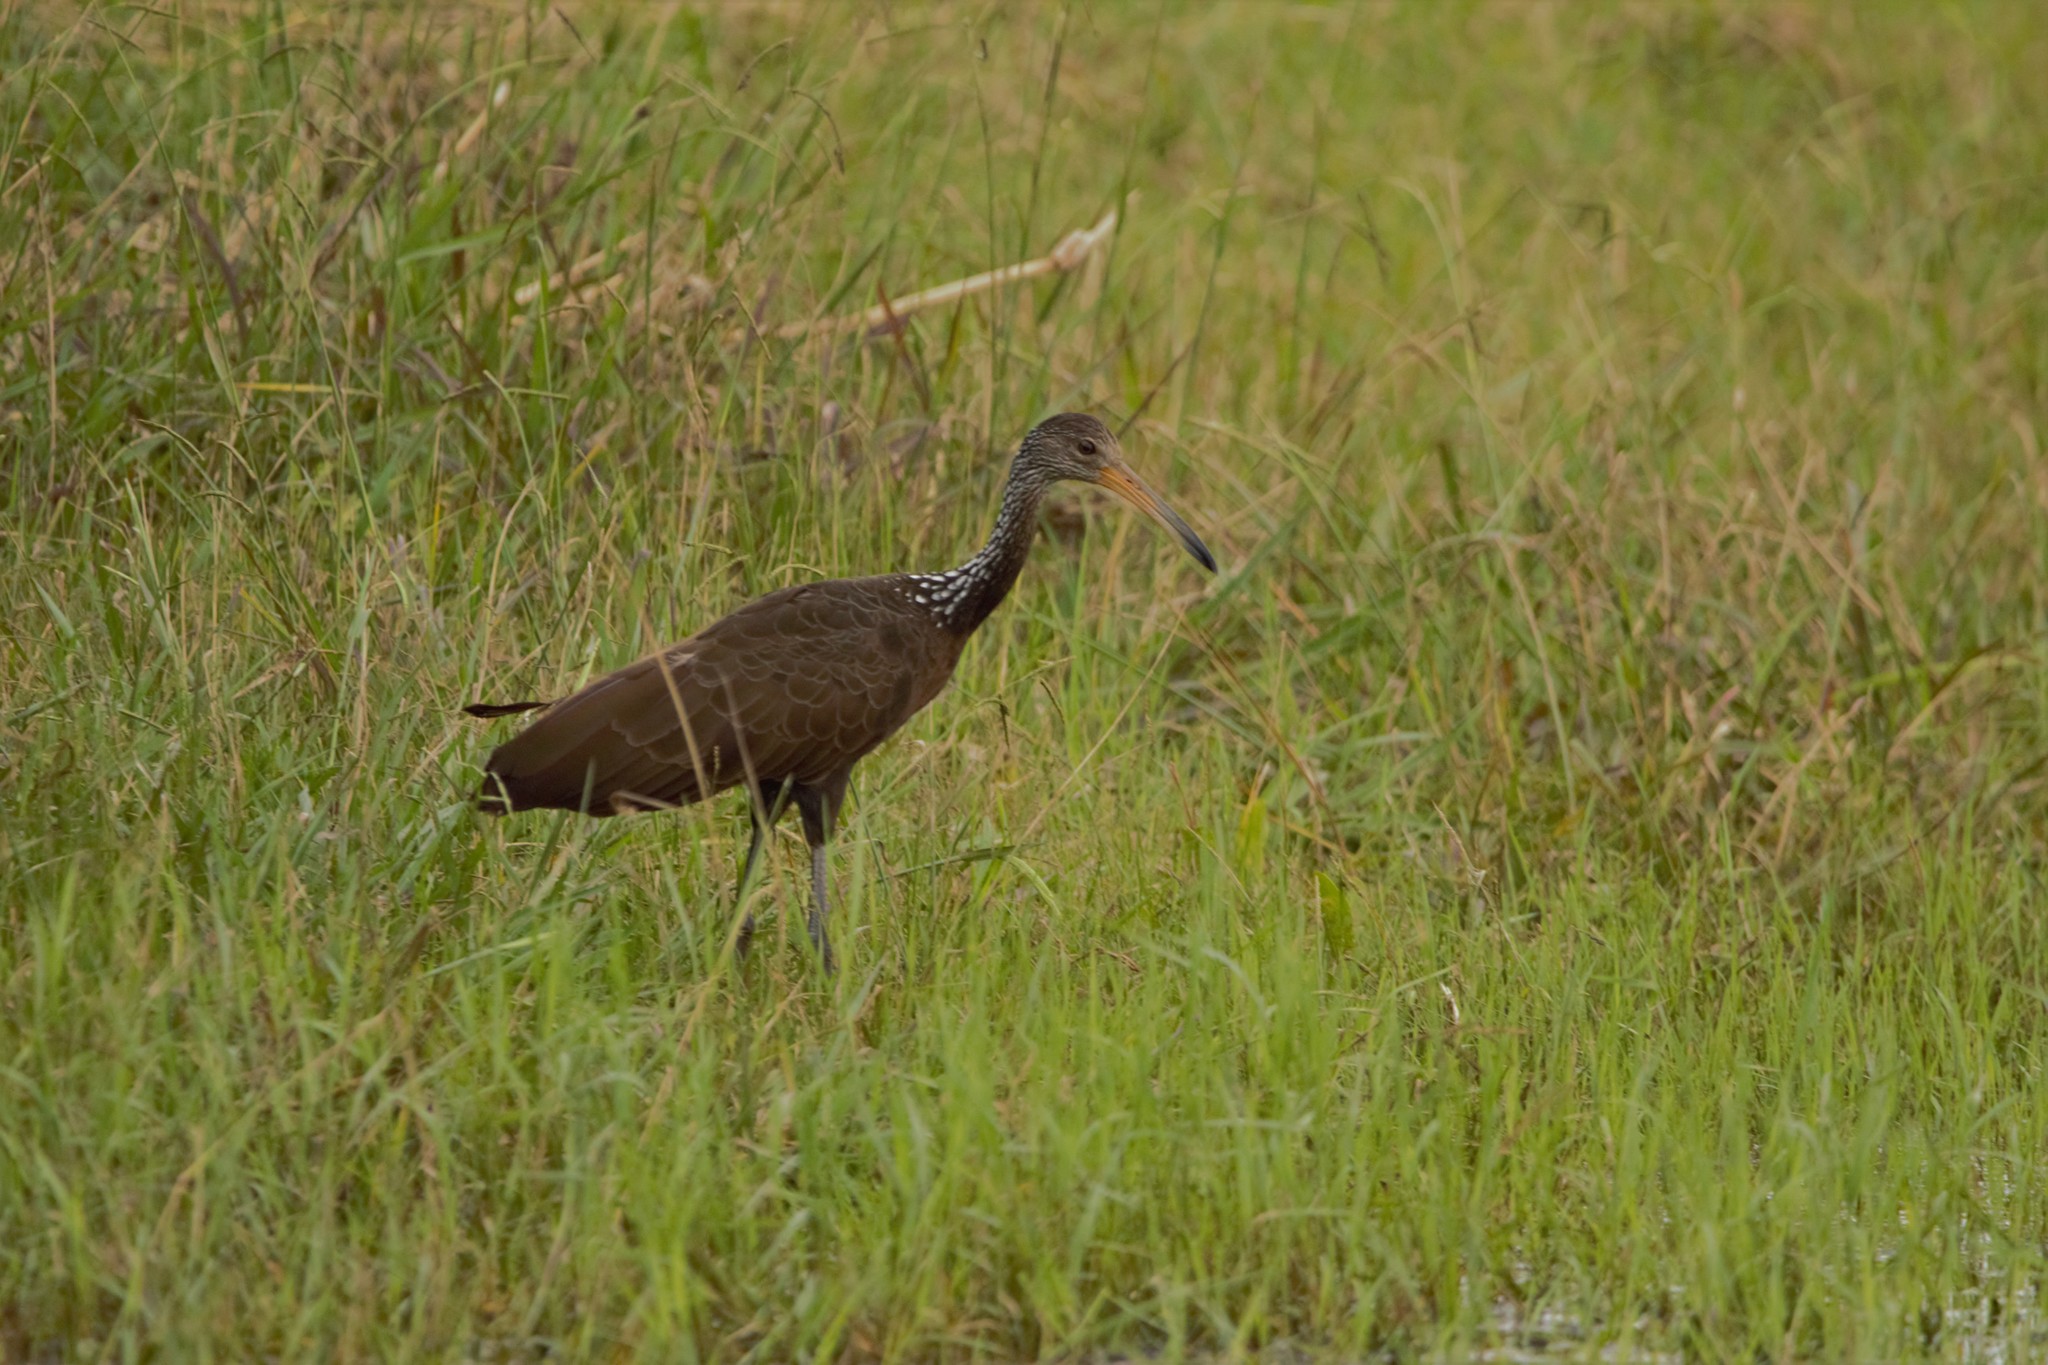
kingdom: Animalia
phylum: Chordata
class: Aves
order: Gruiformes
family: Aramidae
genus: Aramus
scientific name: Aramus guarauna
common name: Limpkin
